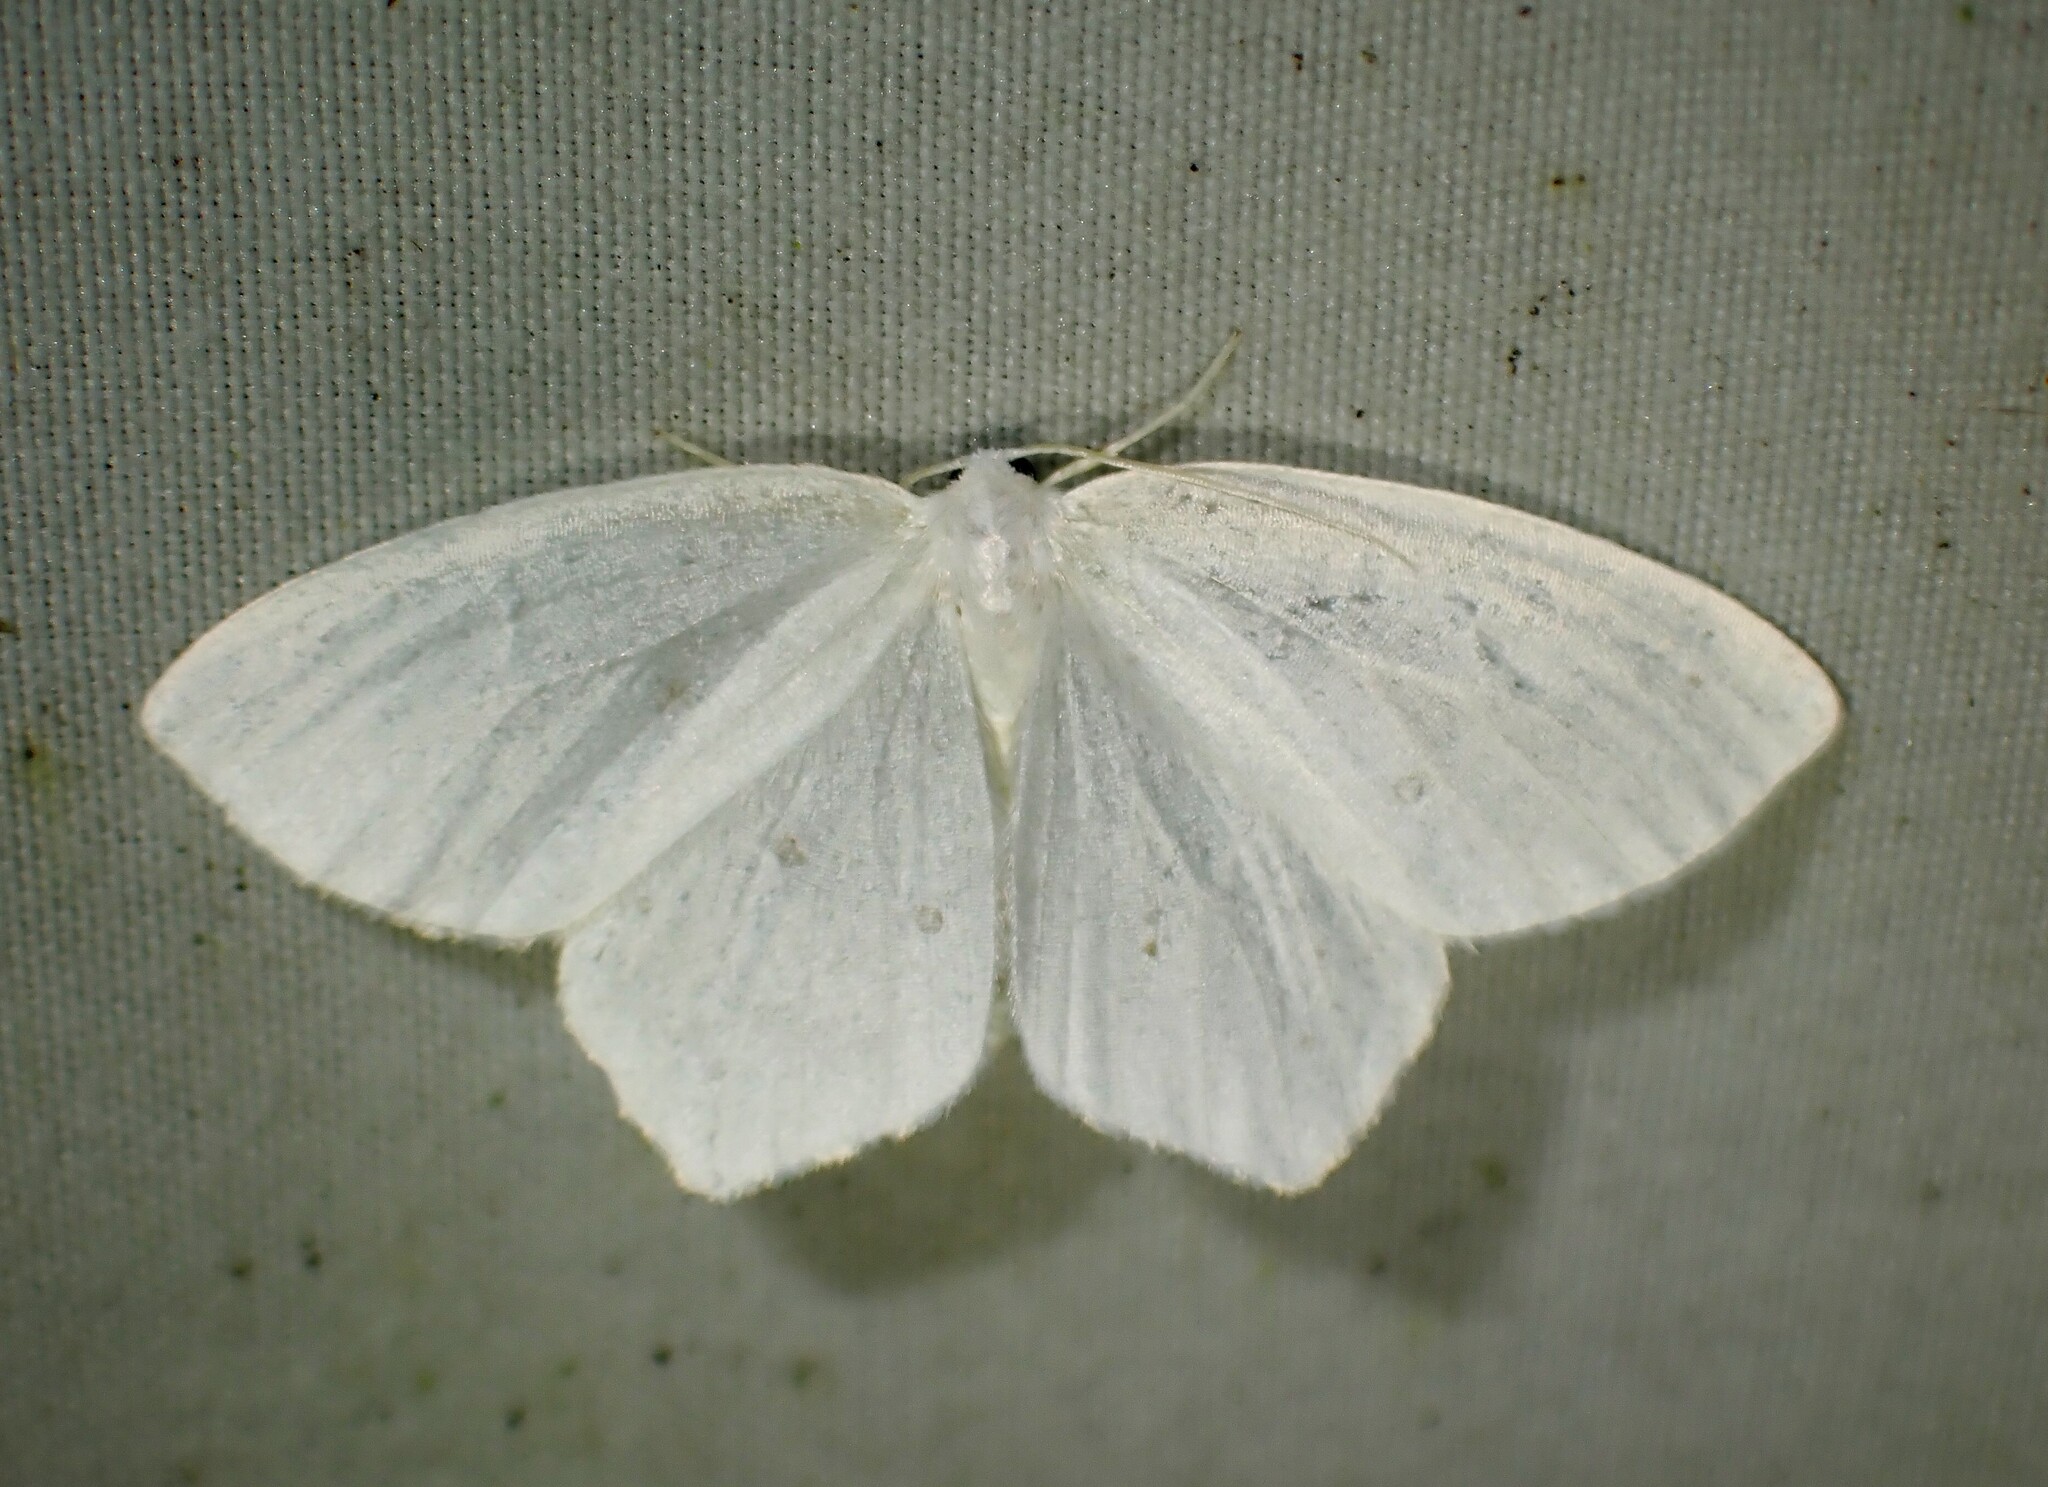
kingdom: Animalia
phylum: Arthropoda
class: Insecta
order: Lepidoptera
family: Geometridae
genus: Eugonobapta
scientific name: Eugonobapta nivosaria
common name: Snowy geometer
